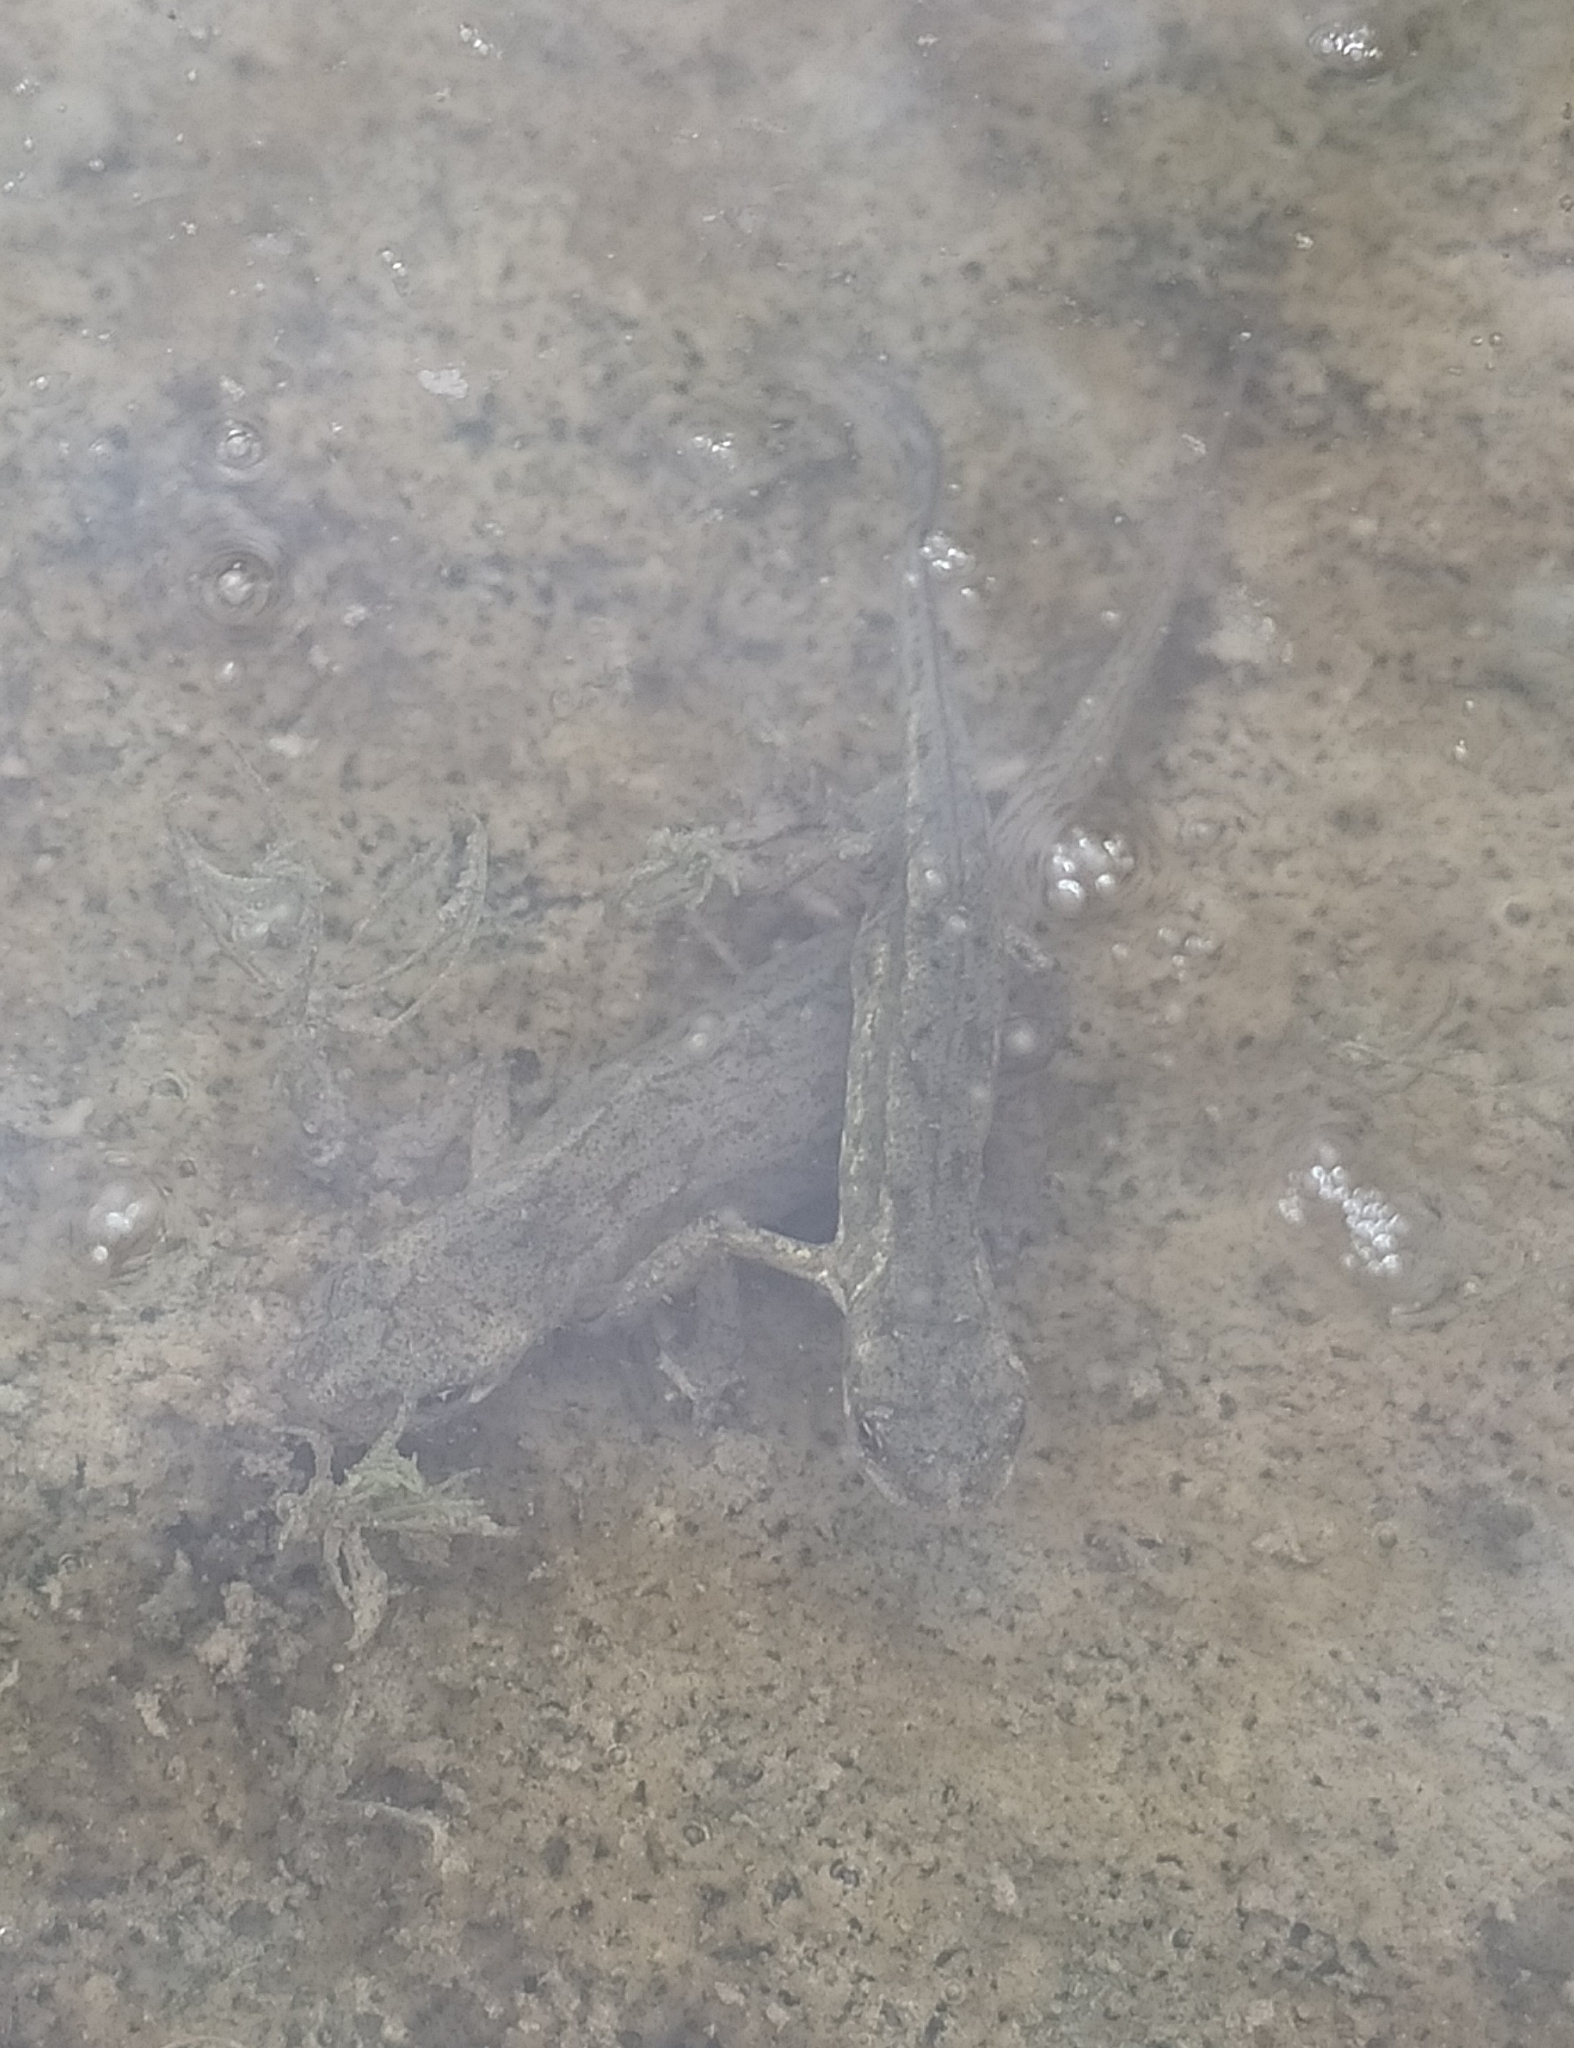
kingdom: Animalia
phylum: Chordata
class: Amphibia
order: Caudata
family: Salamandridae
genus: Lissotriton
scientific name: Lissotriton italicus
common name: Italian newt
